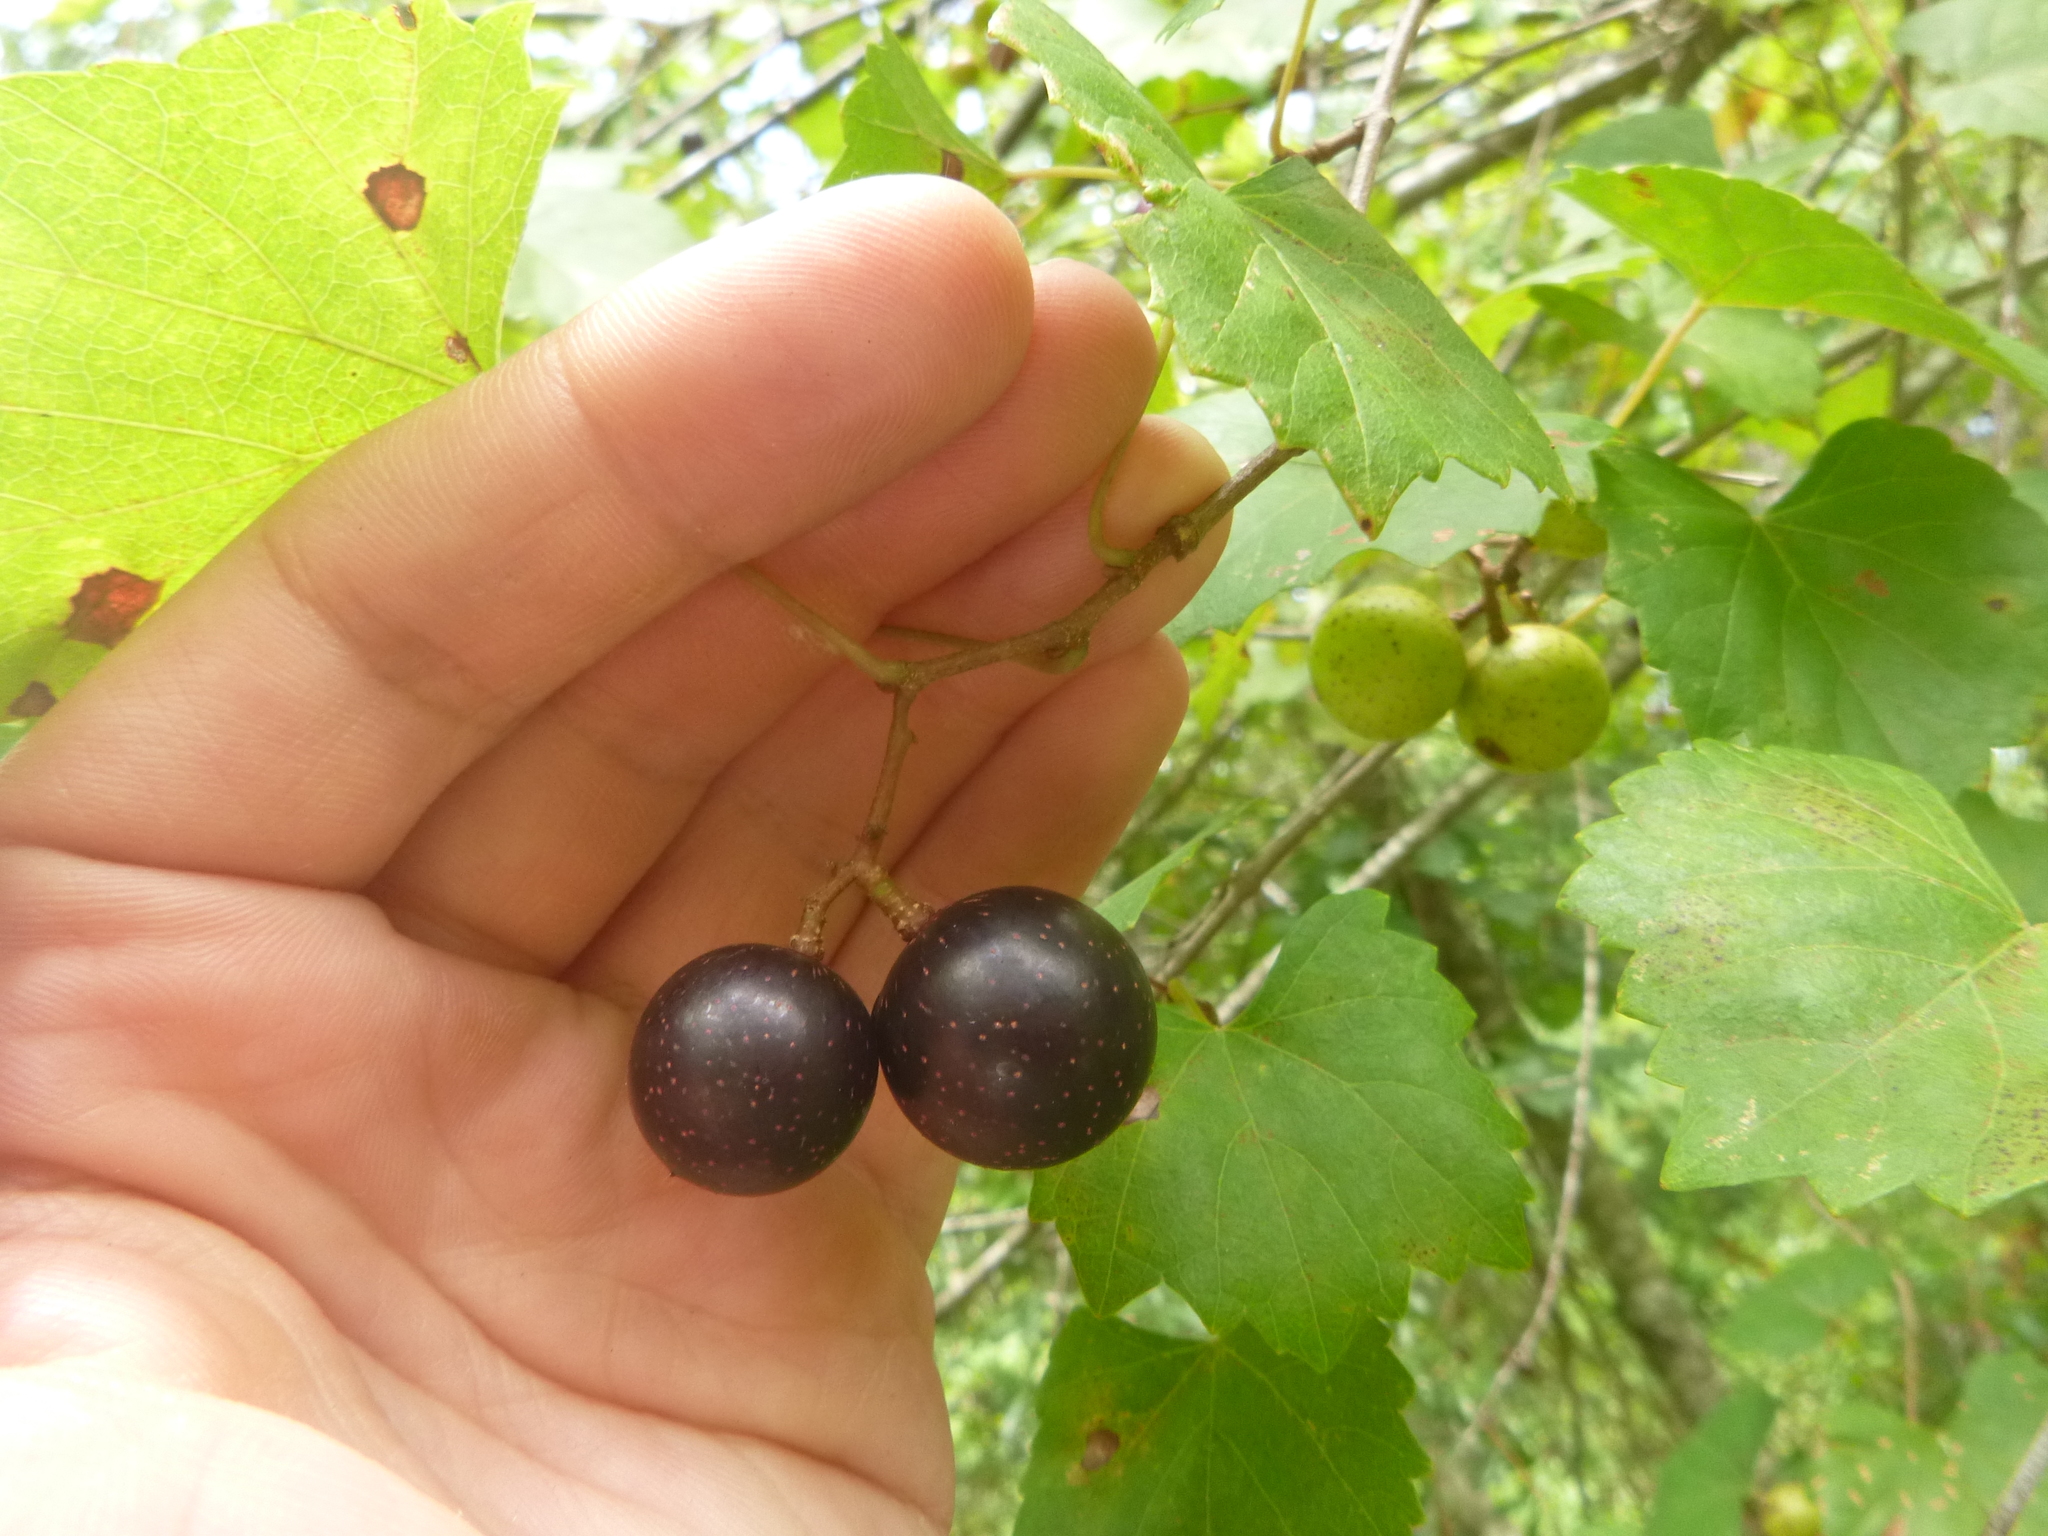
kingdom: Plantae
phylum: Tracheophyta
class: Magnoliopsida
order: Vitales
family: Vitaceae
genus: Vitis
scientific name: Vitis rotundifolia
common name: Muscadine grape
